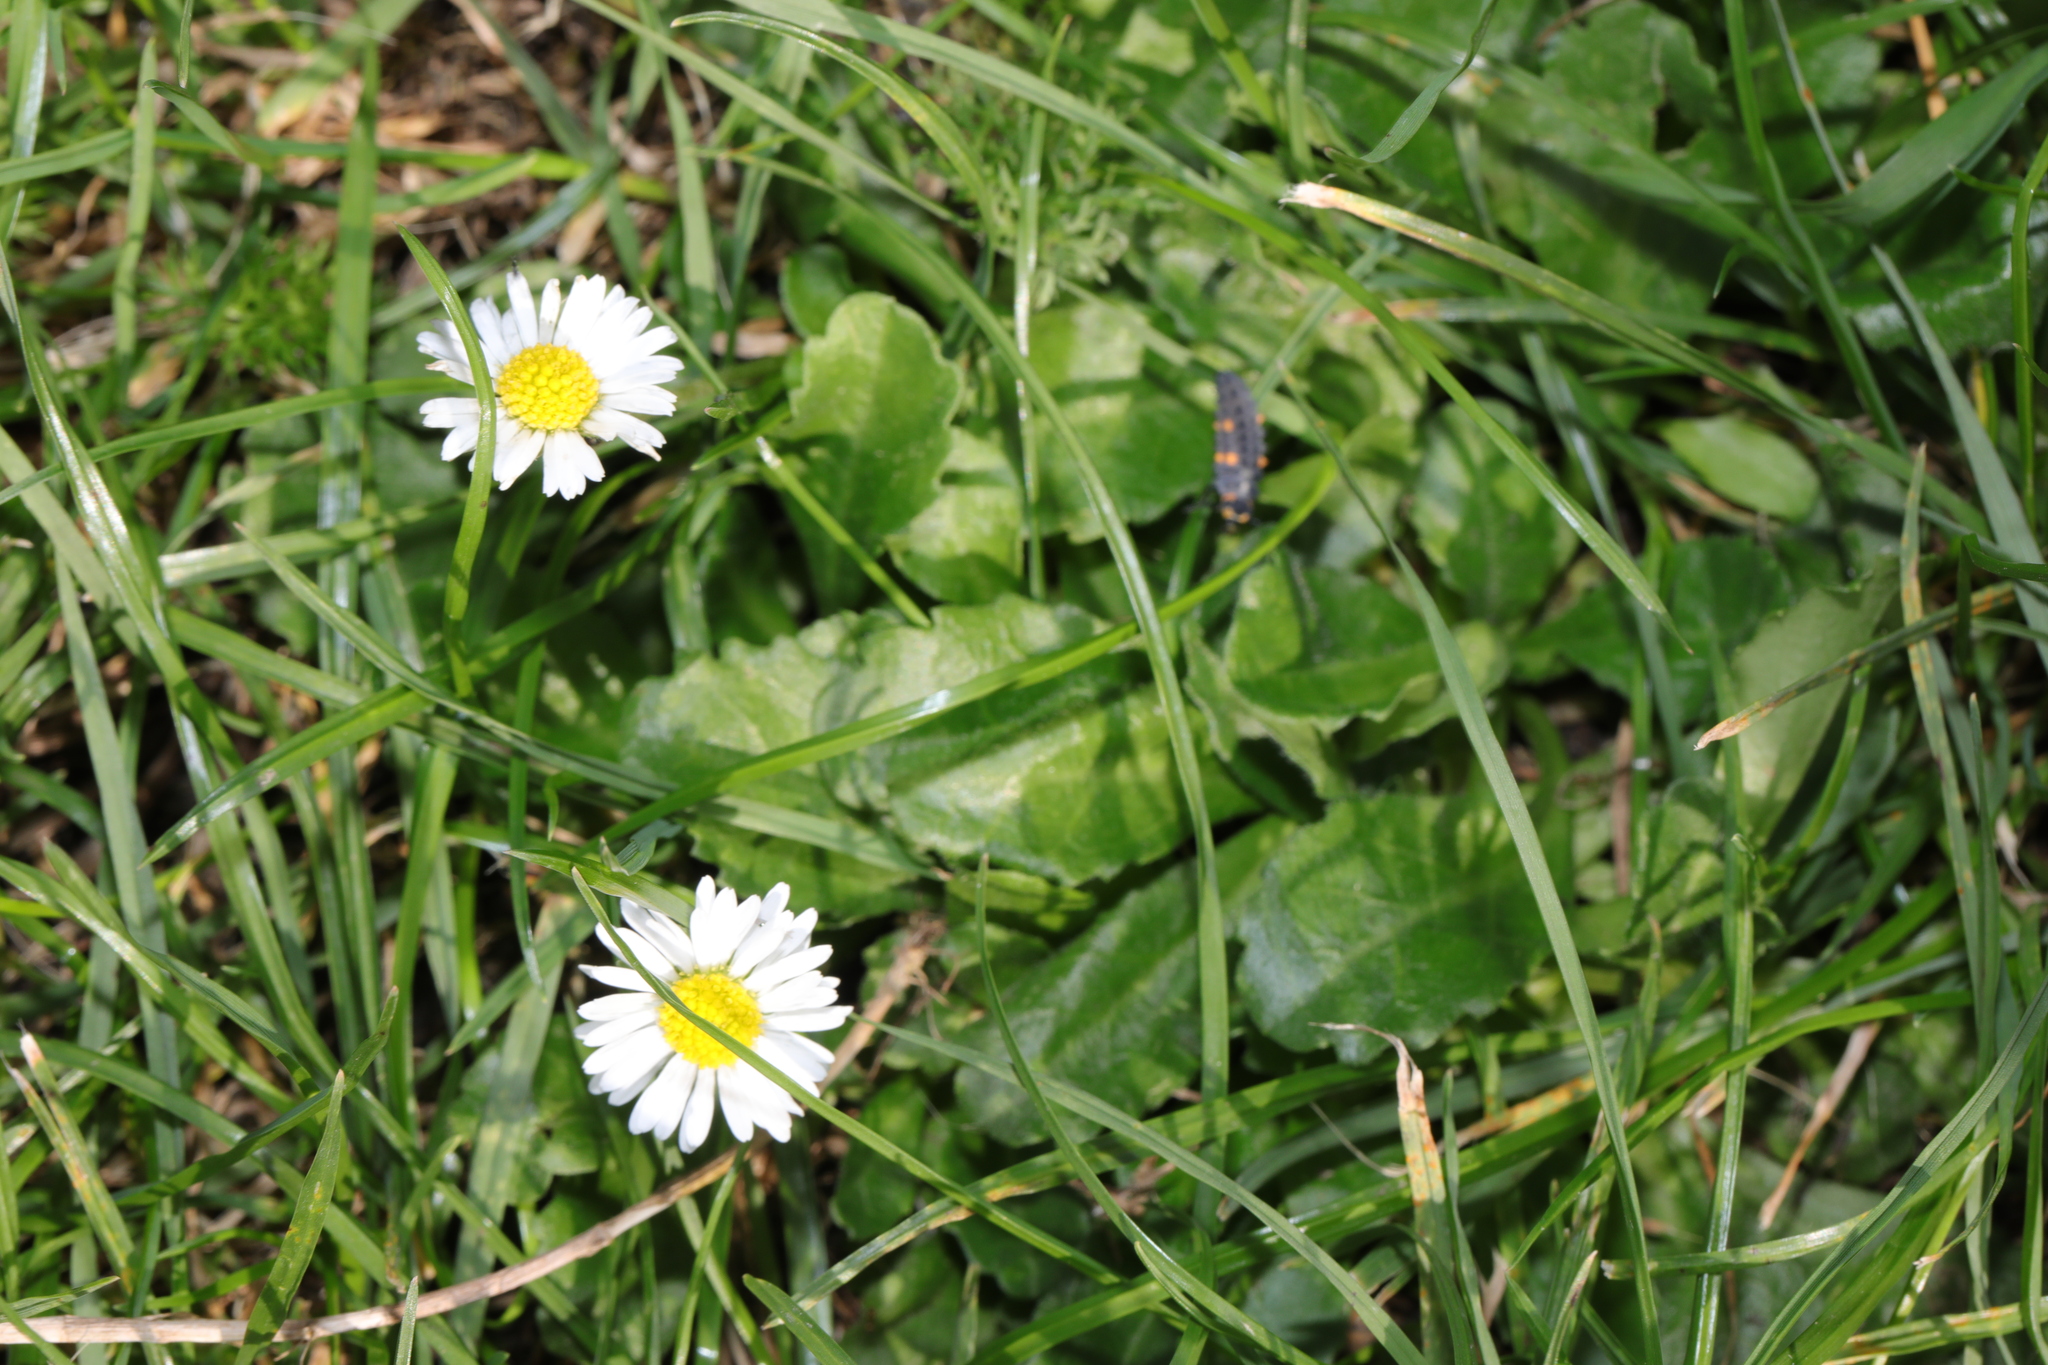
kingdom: Plantae
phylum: Tracheophyta
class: Magnoliopsida
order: Asterales
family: Asteraceae
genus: Bellis
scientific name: Bellis perennis
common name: Lawndaisy
